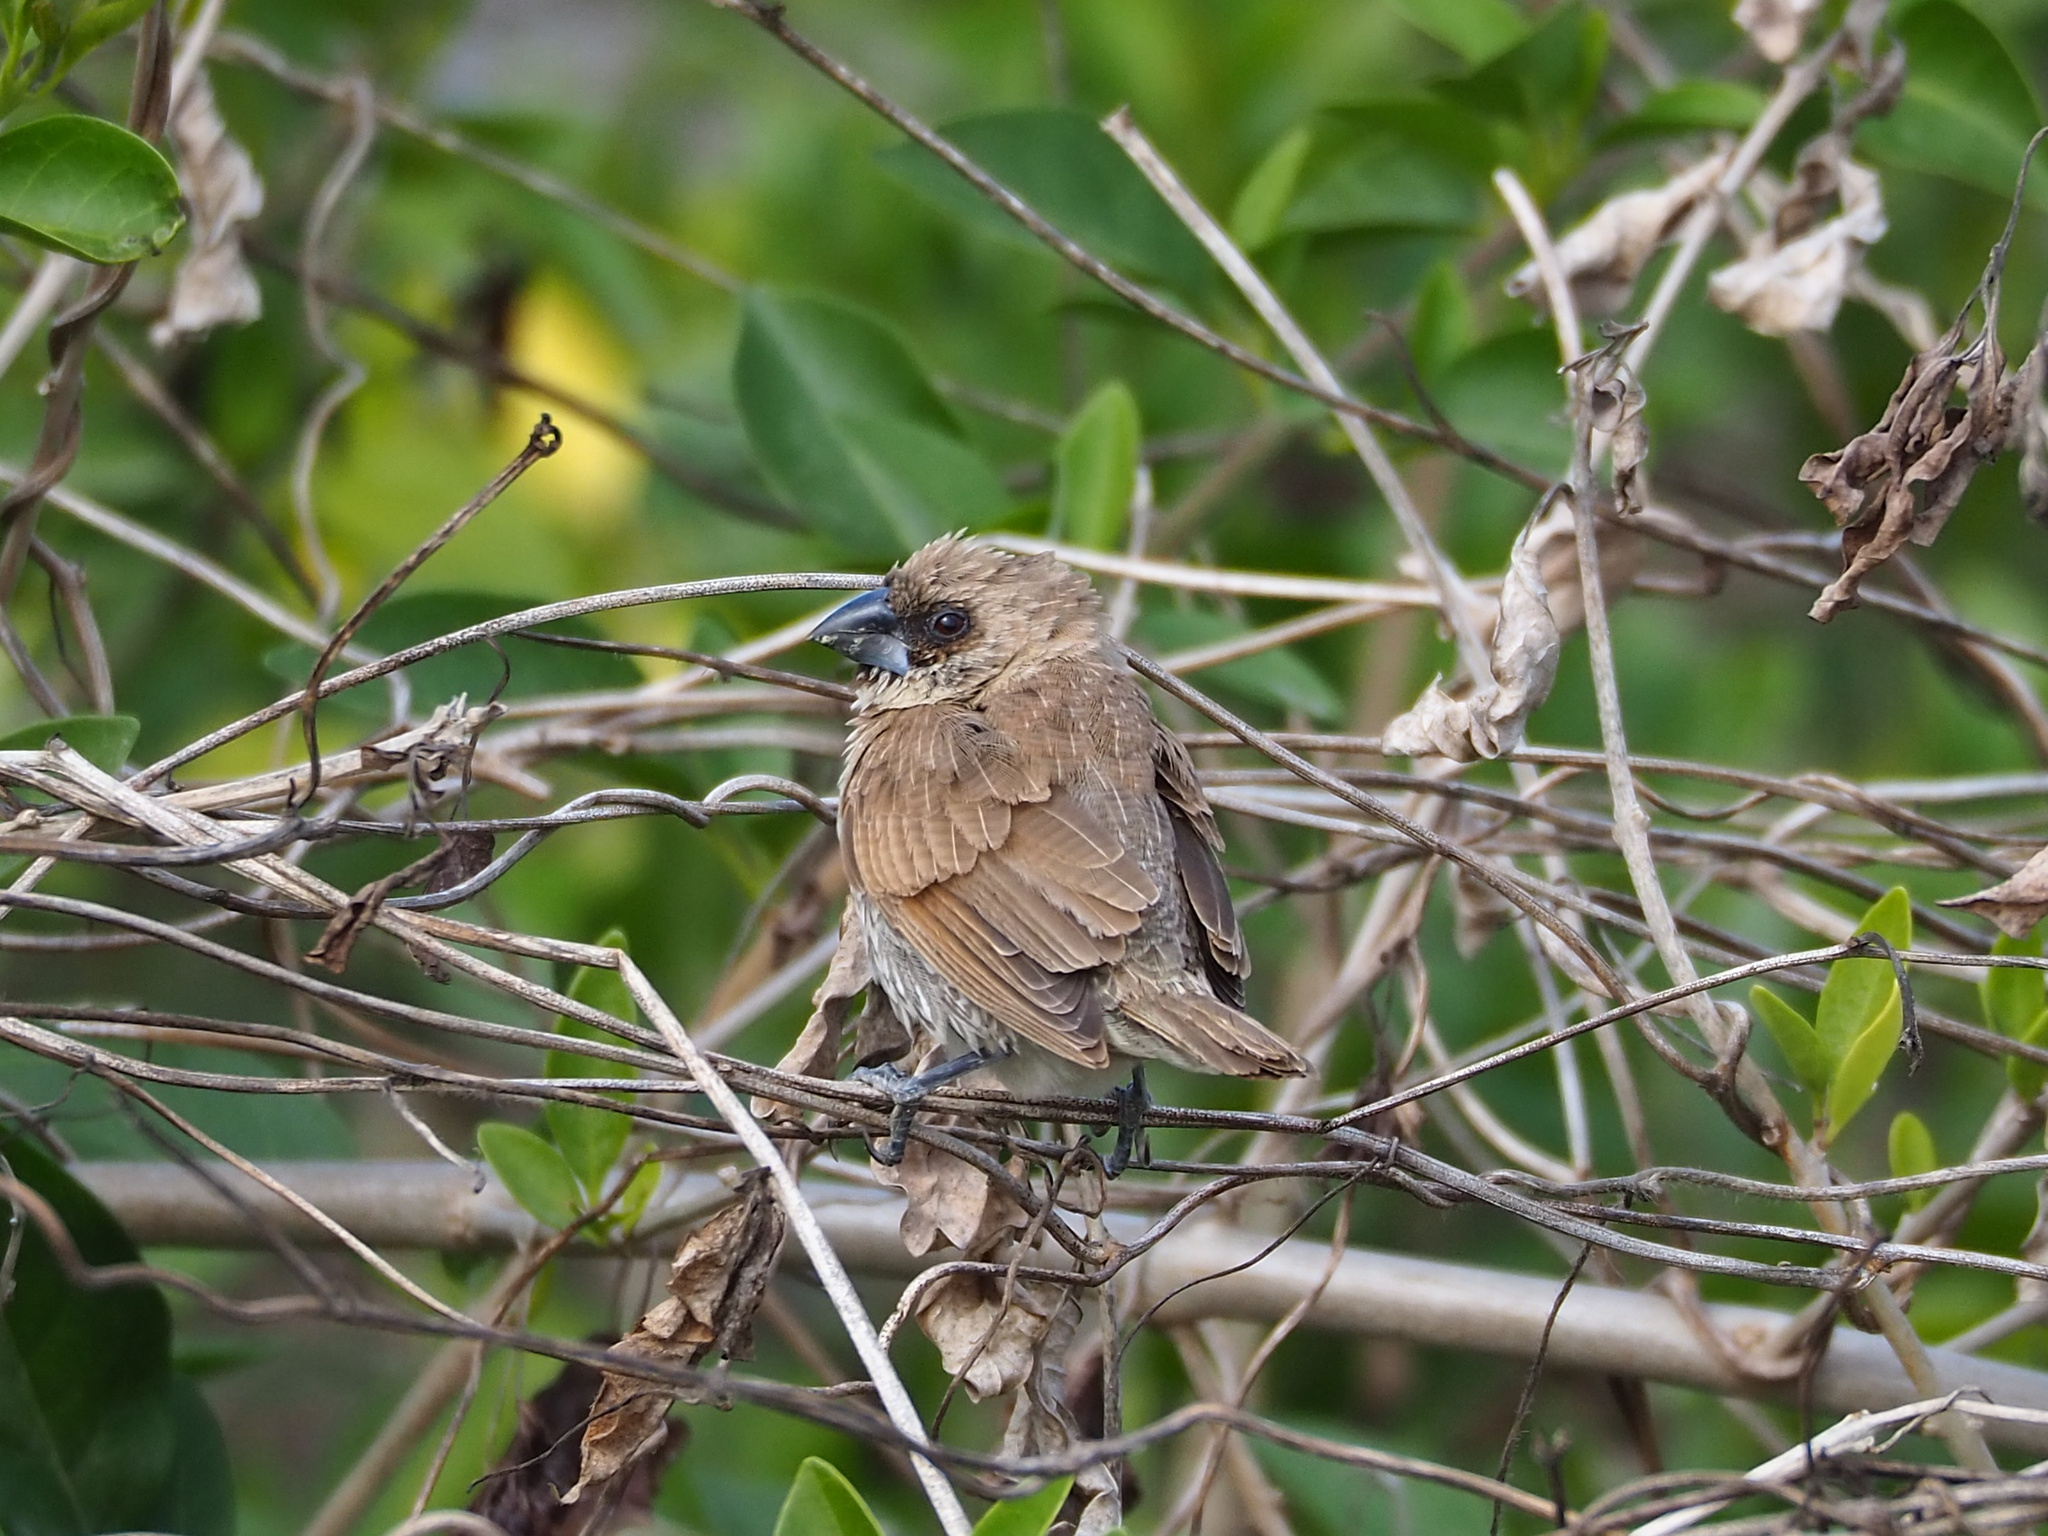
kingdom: Animalia
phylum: Chordata
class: Aves
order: Passeriformes
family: Estrildidae
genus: Lonchura
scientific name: Lonchura punctulata
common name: Scaly-breasted munia
